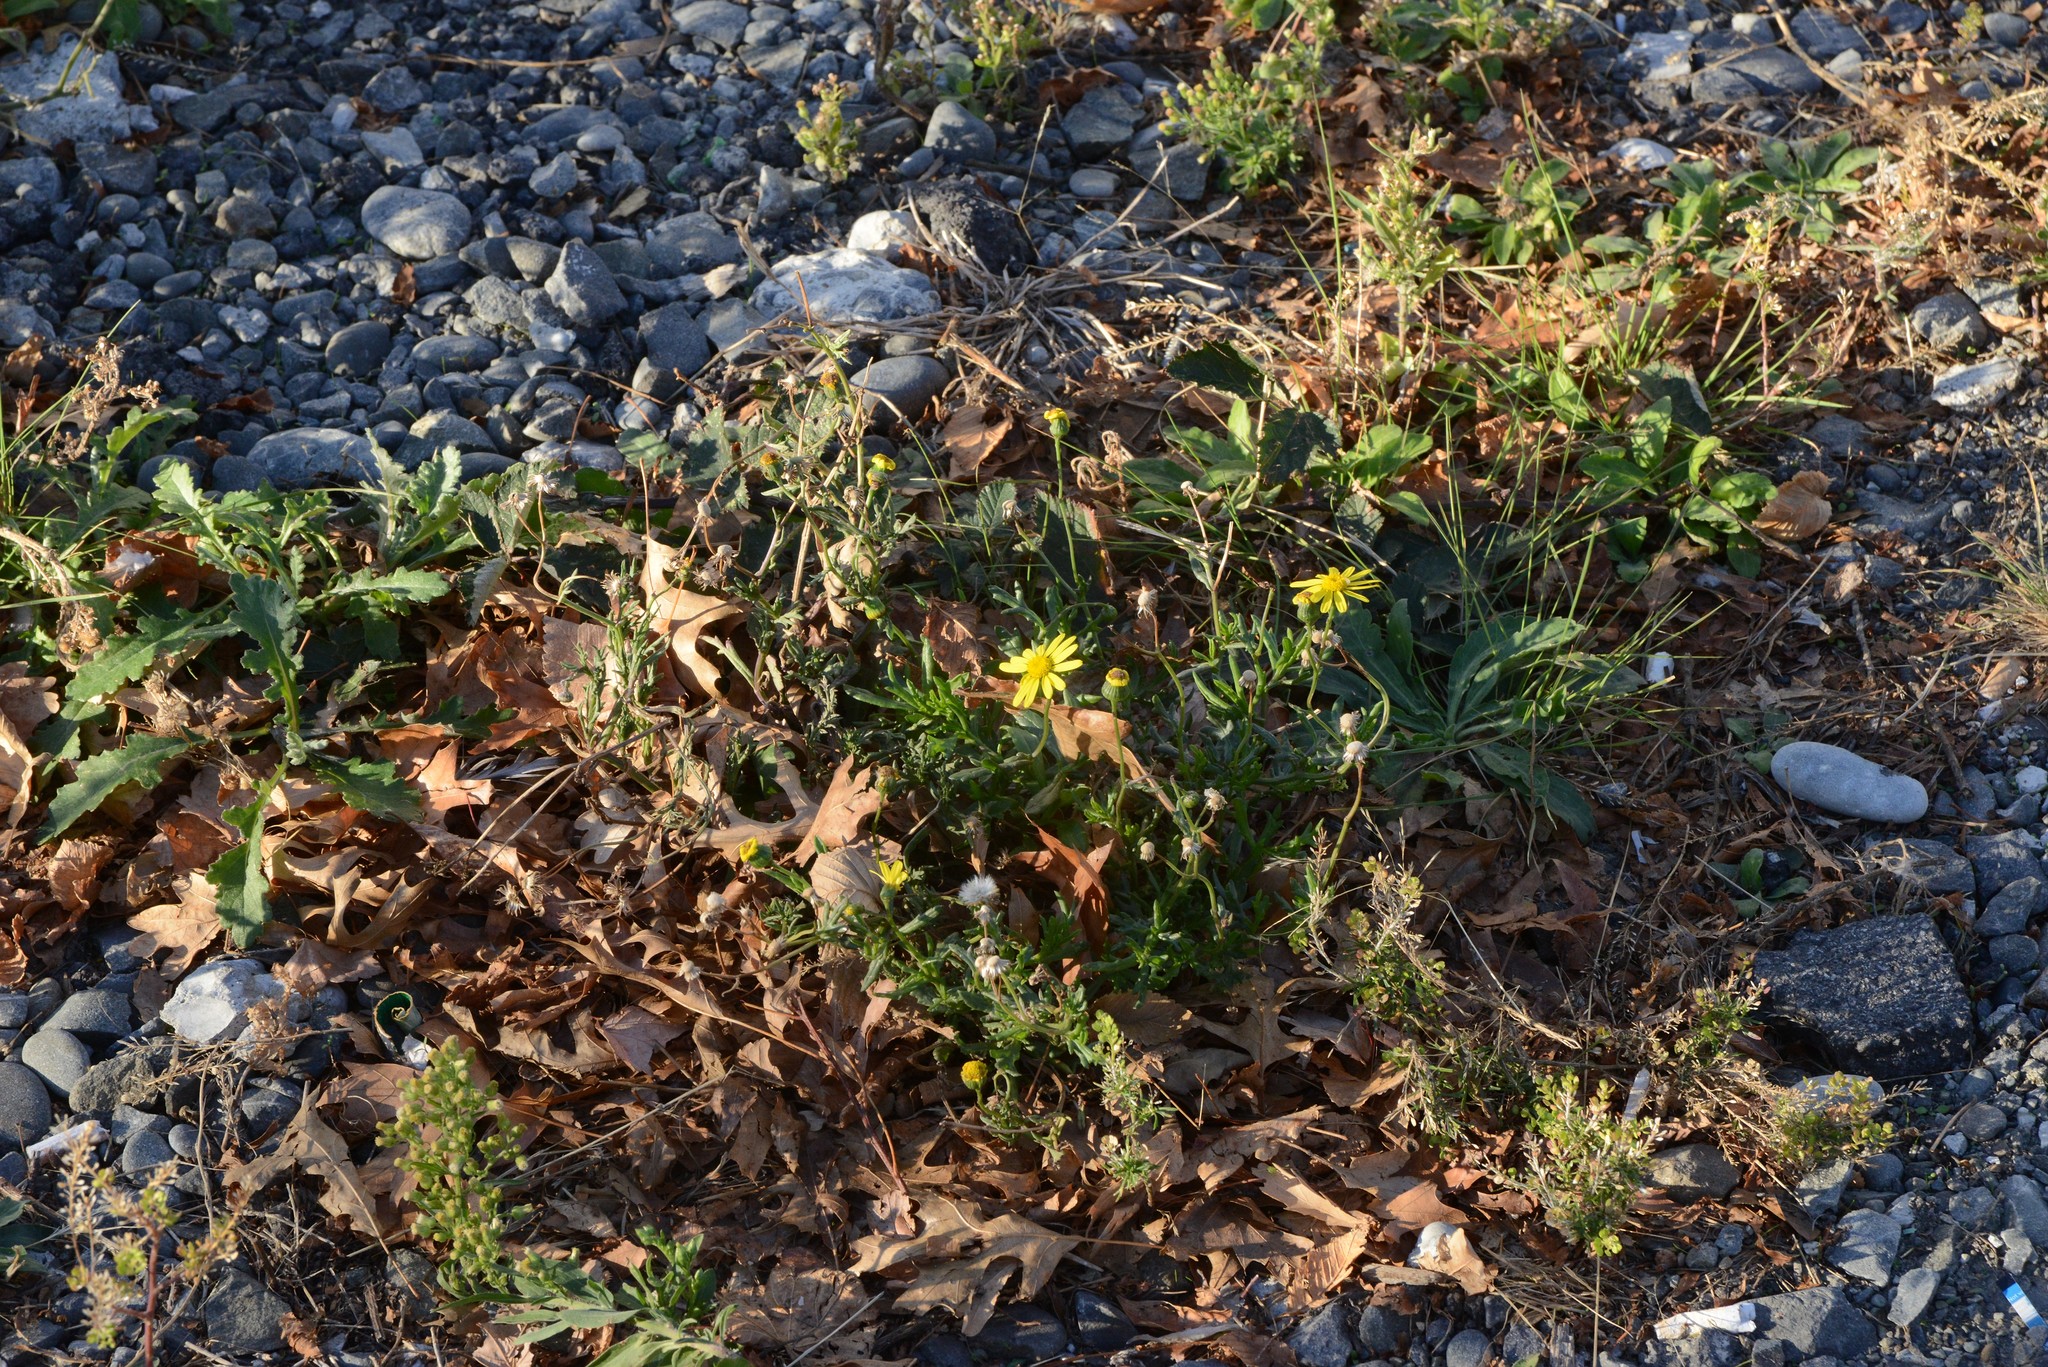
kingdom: Plantae
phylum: Tracheophyta
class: Magnoliopsida
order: Asterales
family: Asteraceae
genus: Senecio
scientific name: Senecio skirrhodon
